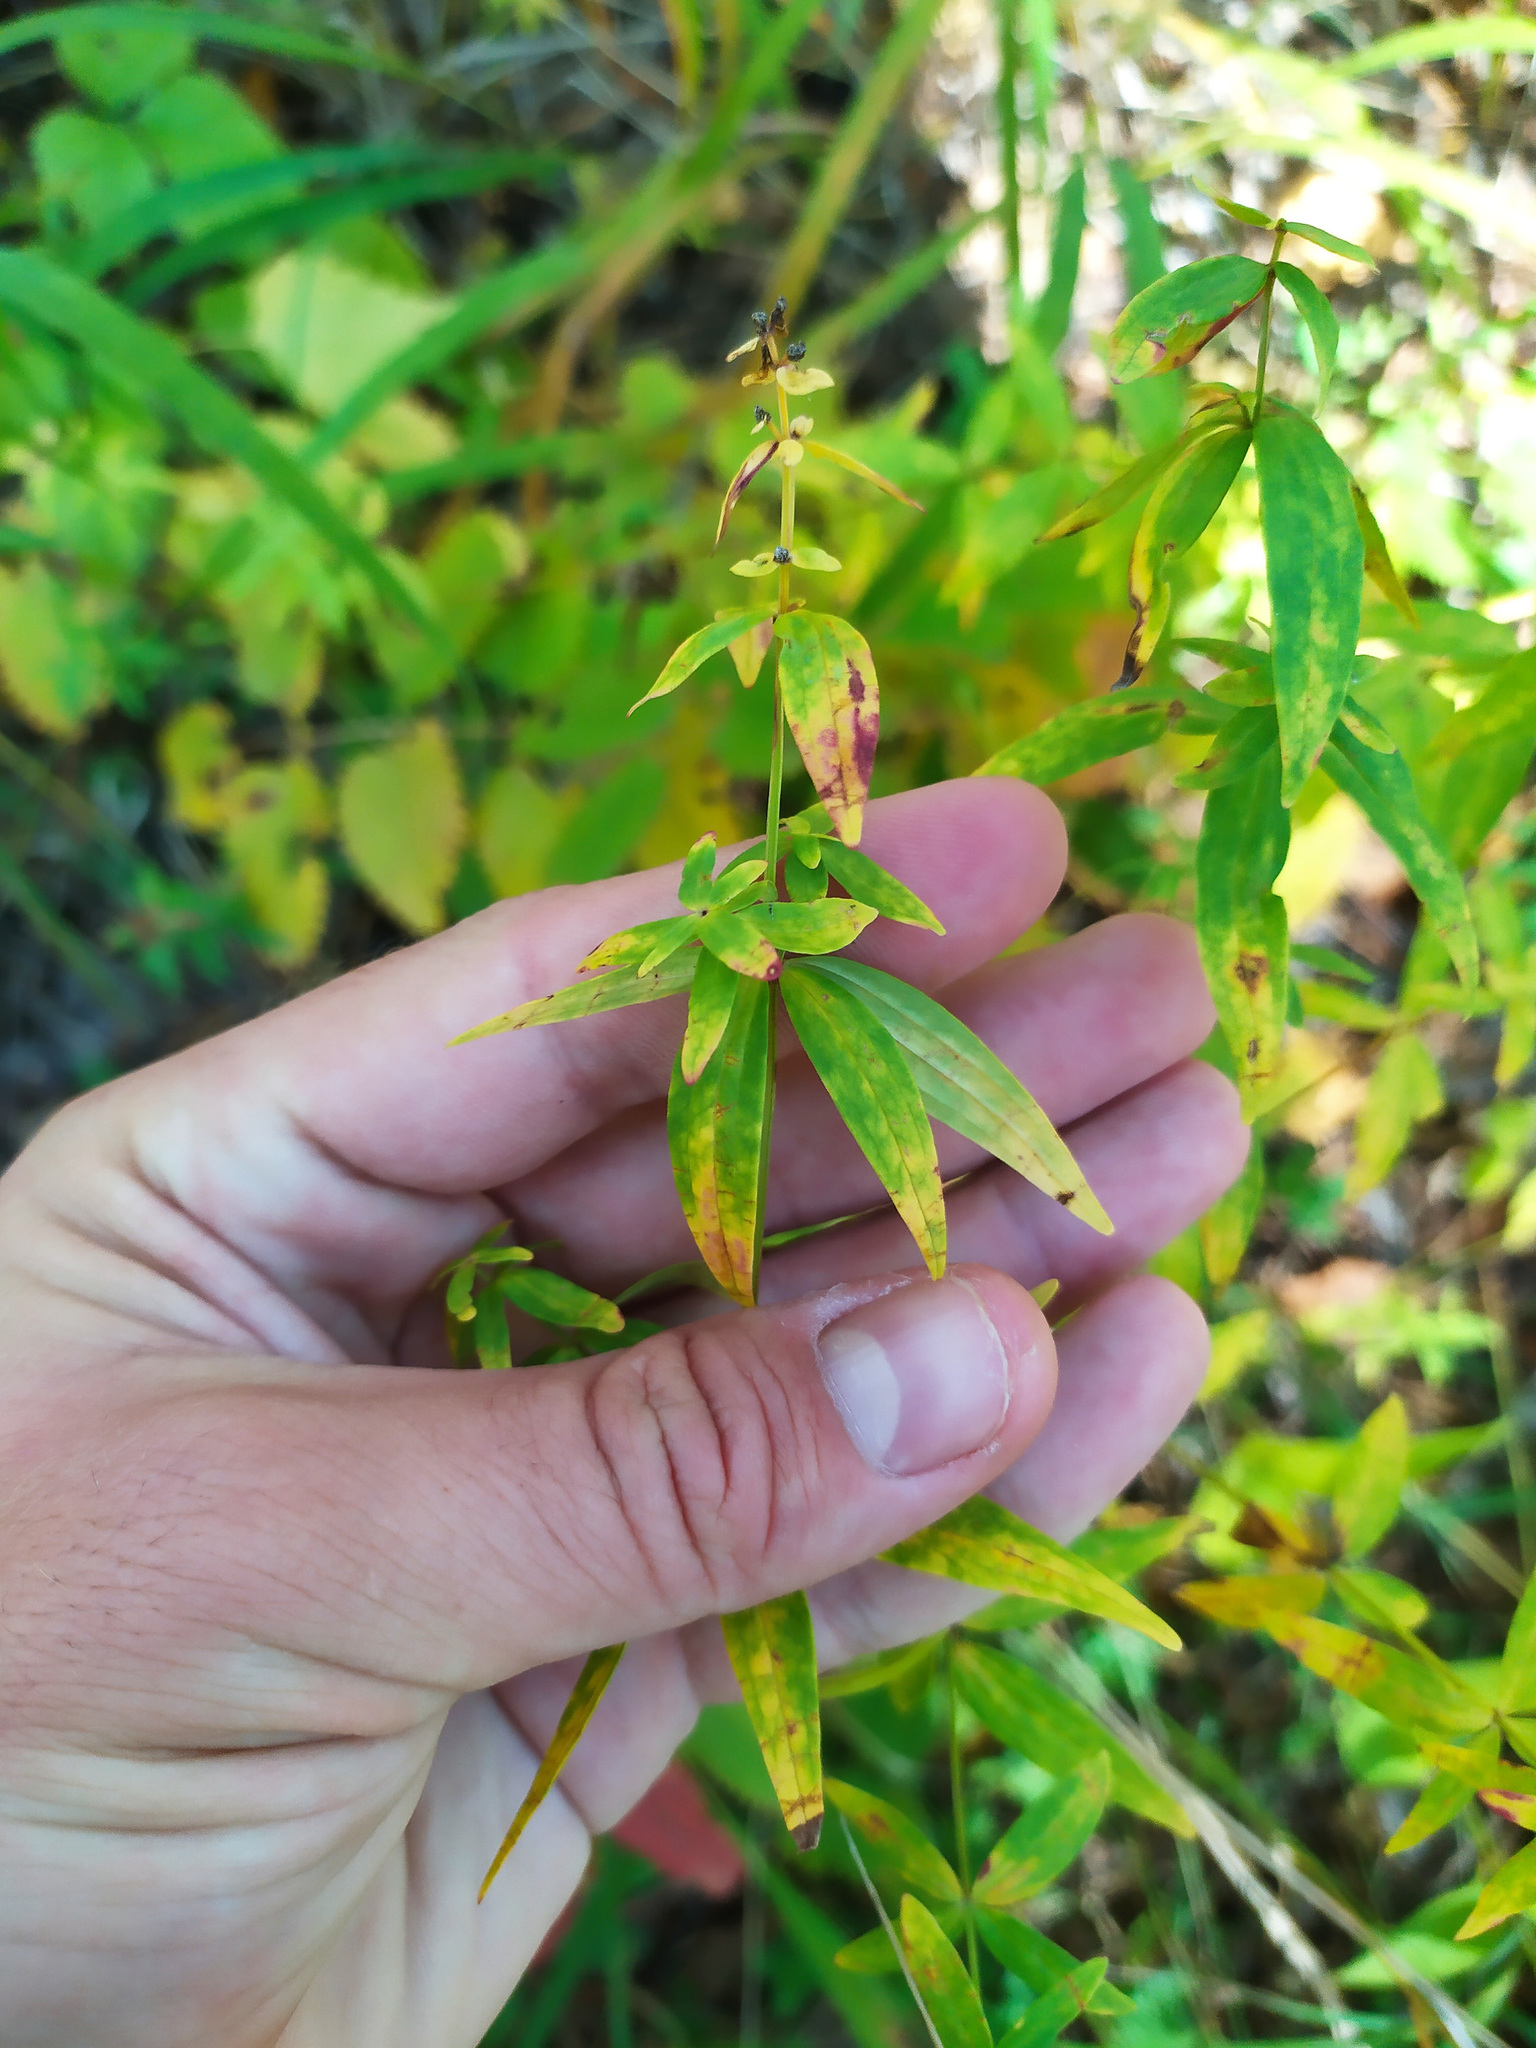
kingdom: Plantae
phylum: Tracheophyta
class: Magnoliopsida
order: Gentianales
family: Rubiaceae
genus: Galium
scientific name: Galium boreale
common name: Northern bedstraw
